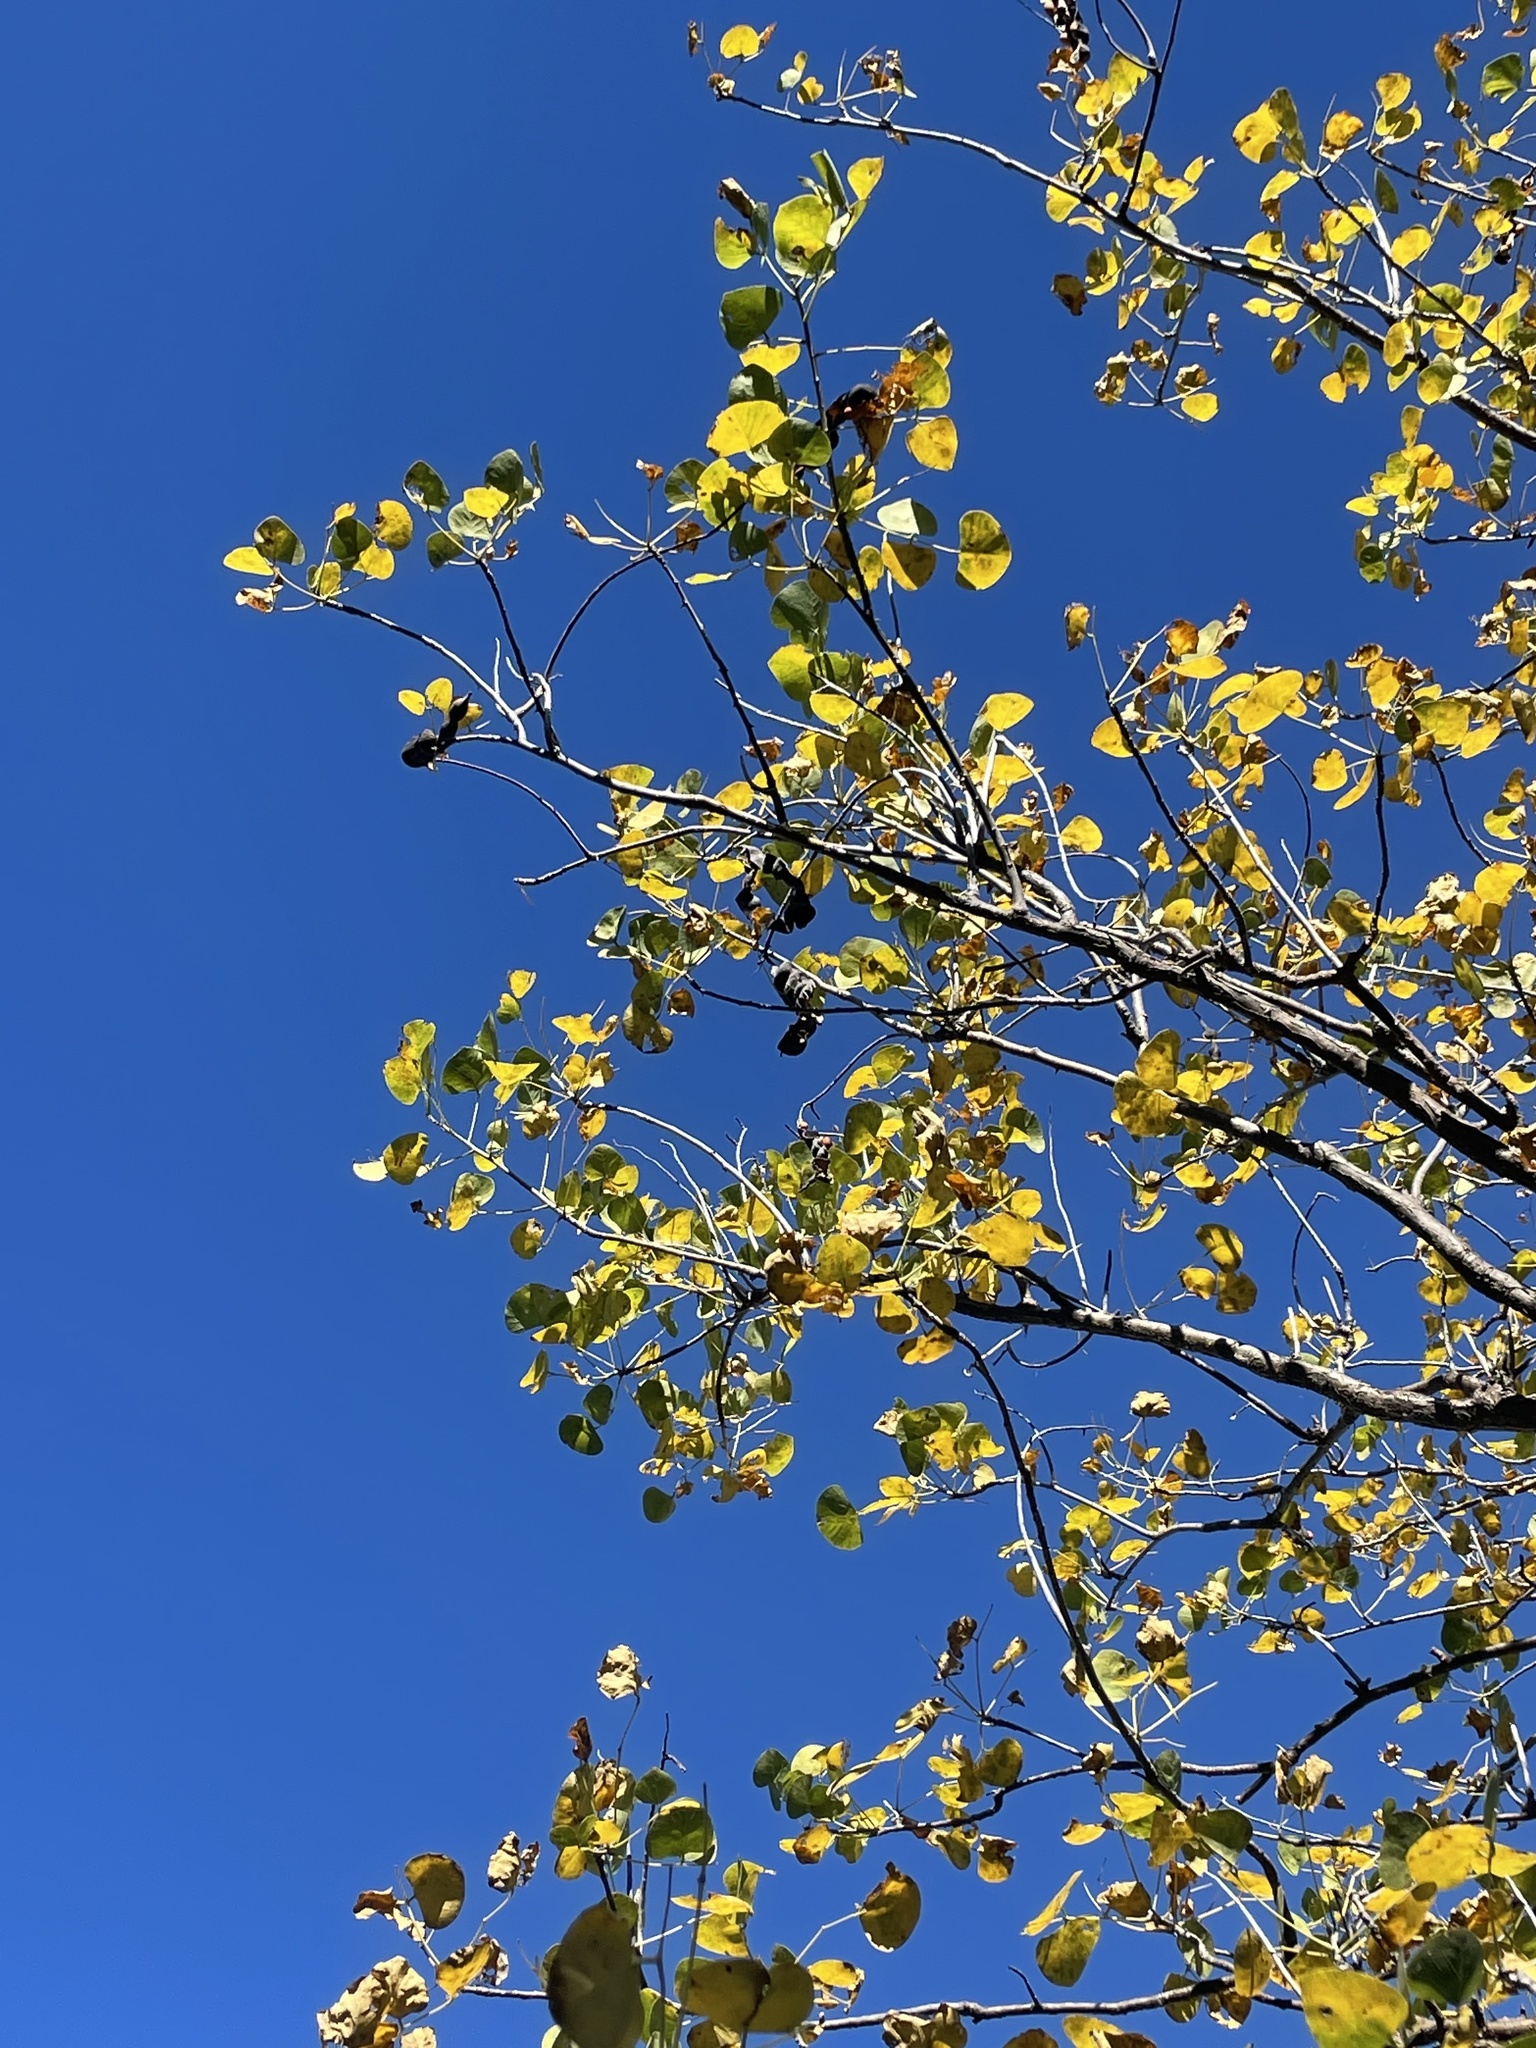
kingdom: Plantae
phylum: Tracheophyta
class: Magnoliopsida
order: Fabales
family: Fabaceae
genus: Erythrina
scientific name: Erythrina flabelliformis
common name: Chilicote
